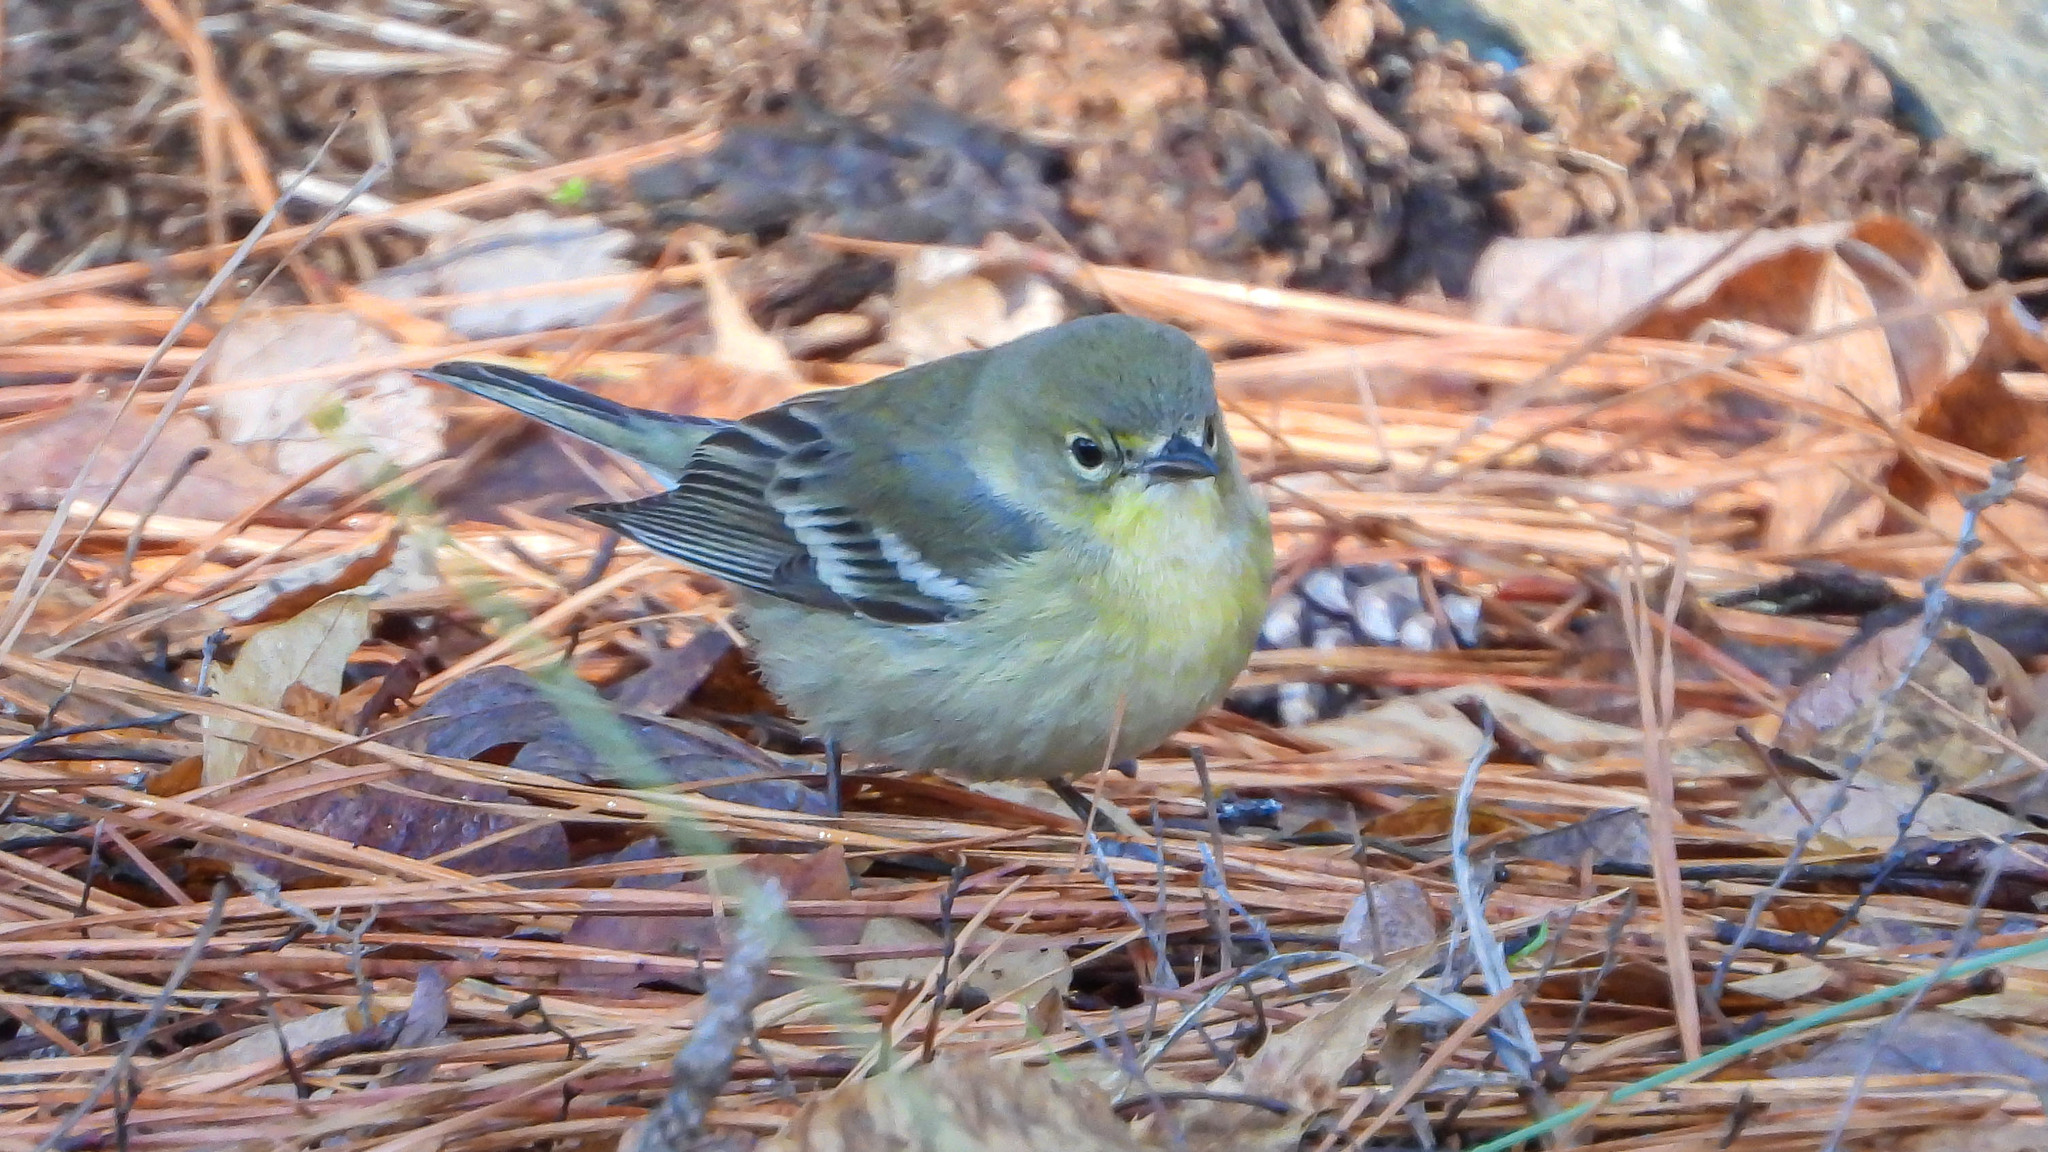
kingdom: Animalia
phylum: Chordata
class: Aves
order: Passeriformes
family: Parulidae
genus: Setophaga
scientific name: Setophaga pinus
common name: Pine warbler
